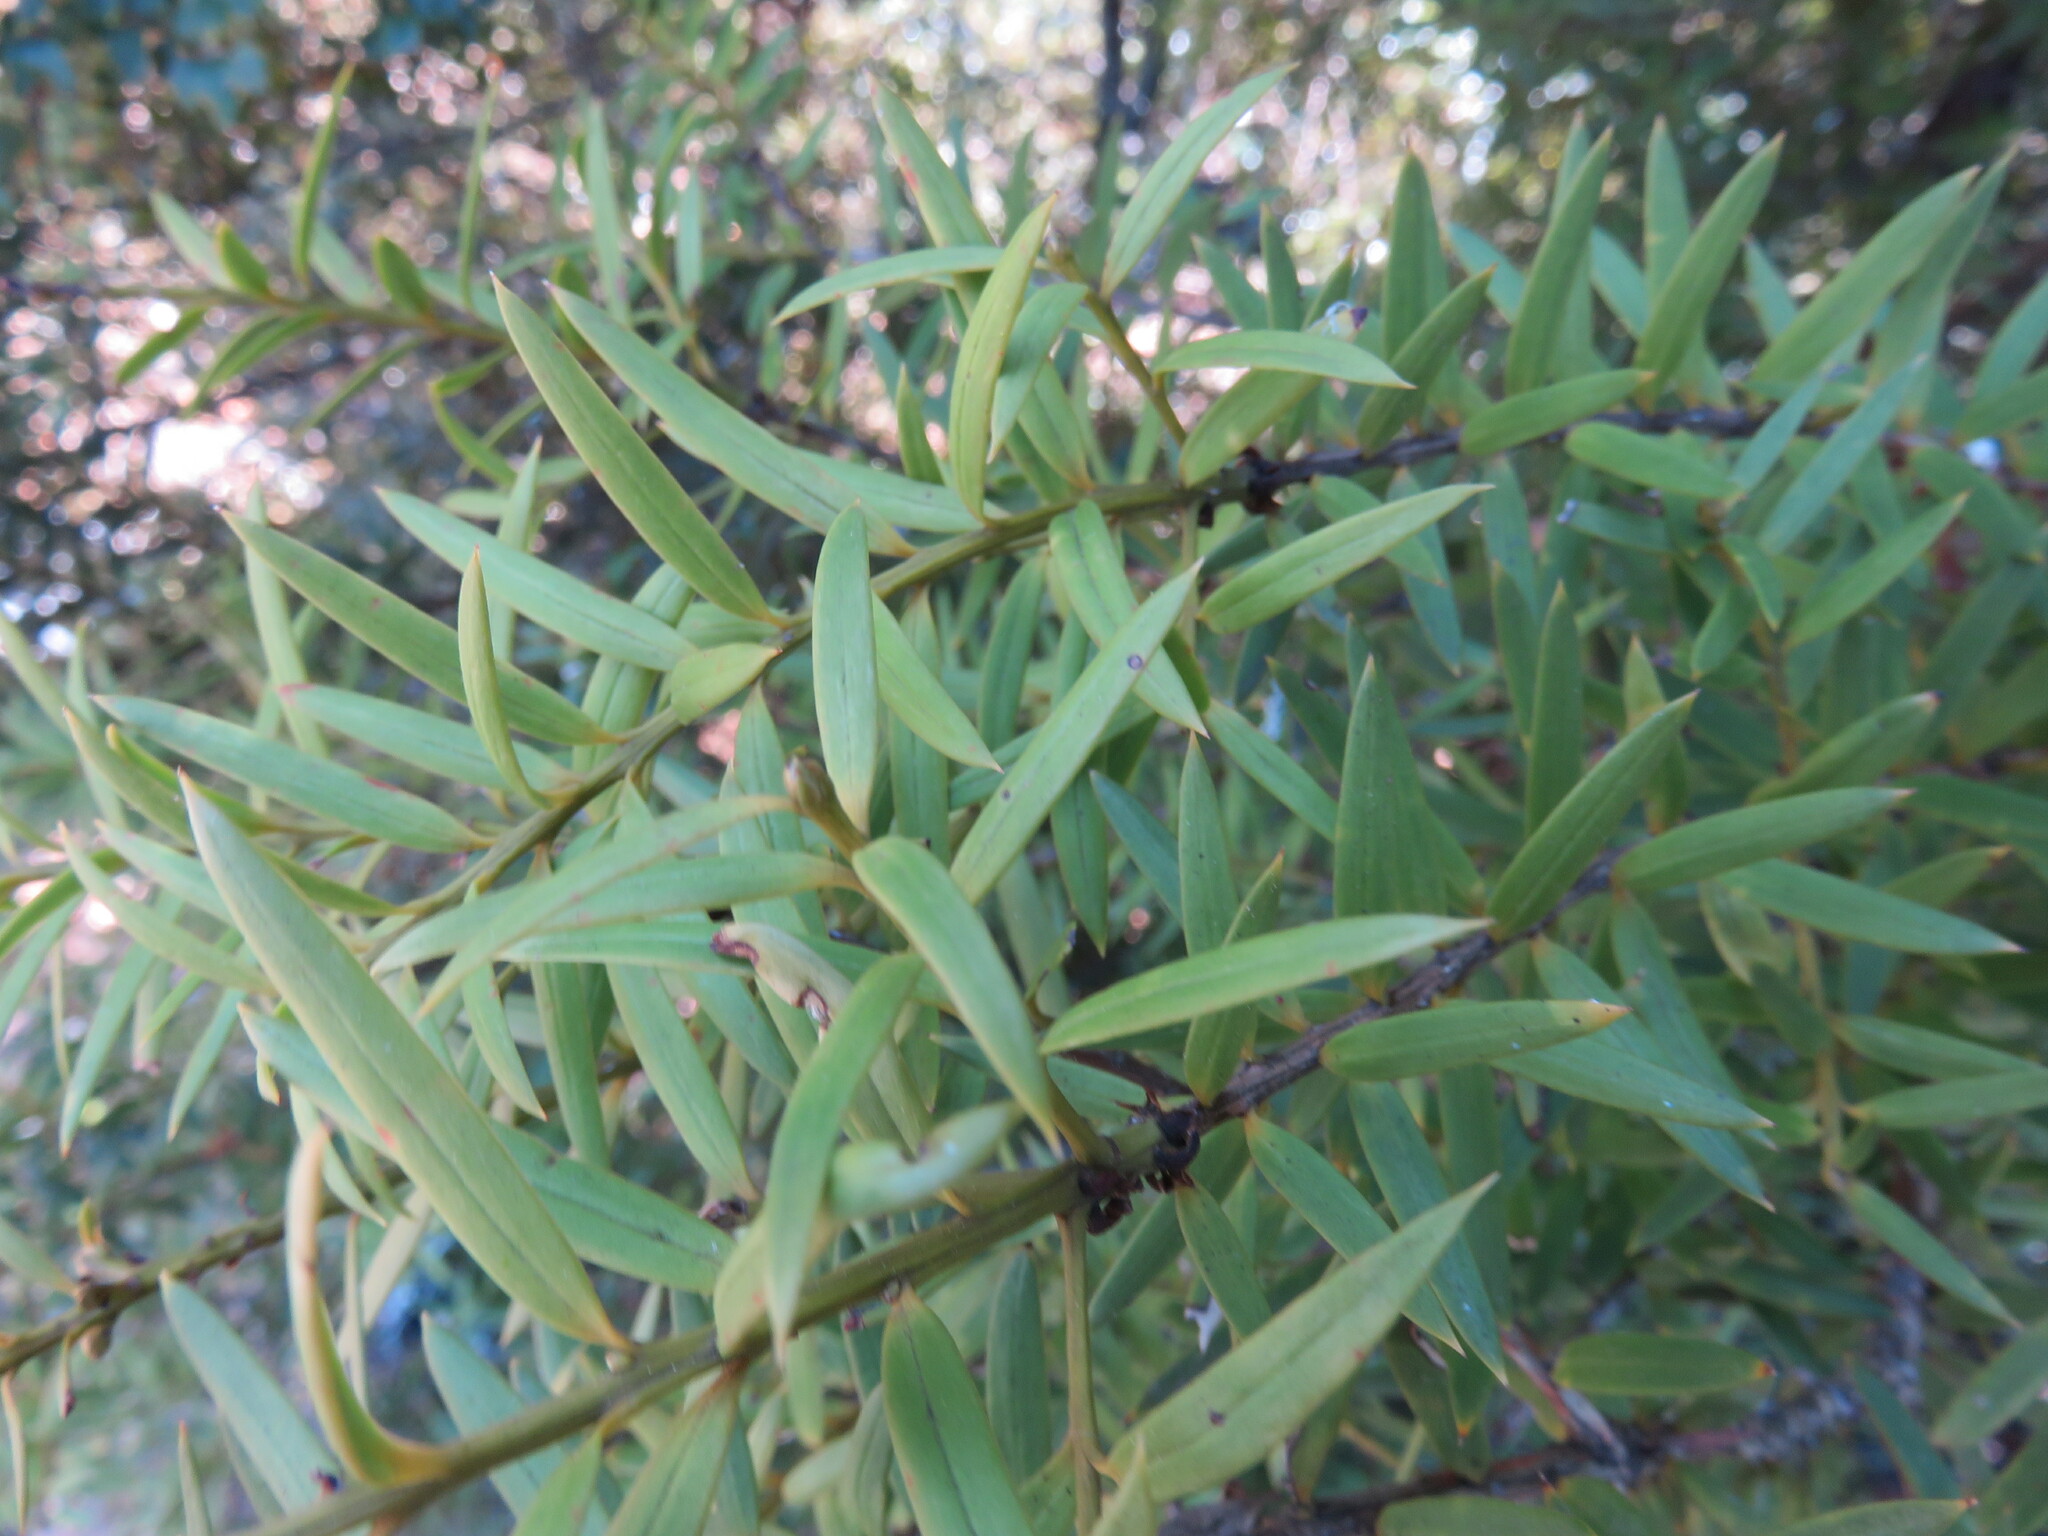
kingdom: Plantae
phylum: Tracheophyta
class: Pinopsida
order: Pinales
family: Podocarpaceae
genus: Podocarpus
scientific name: Podocarpus totara
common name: Totara
